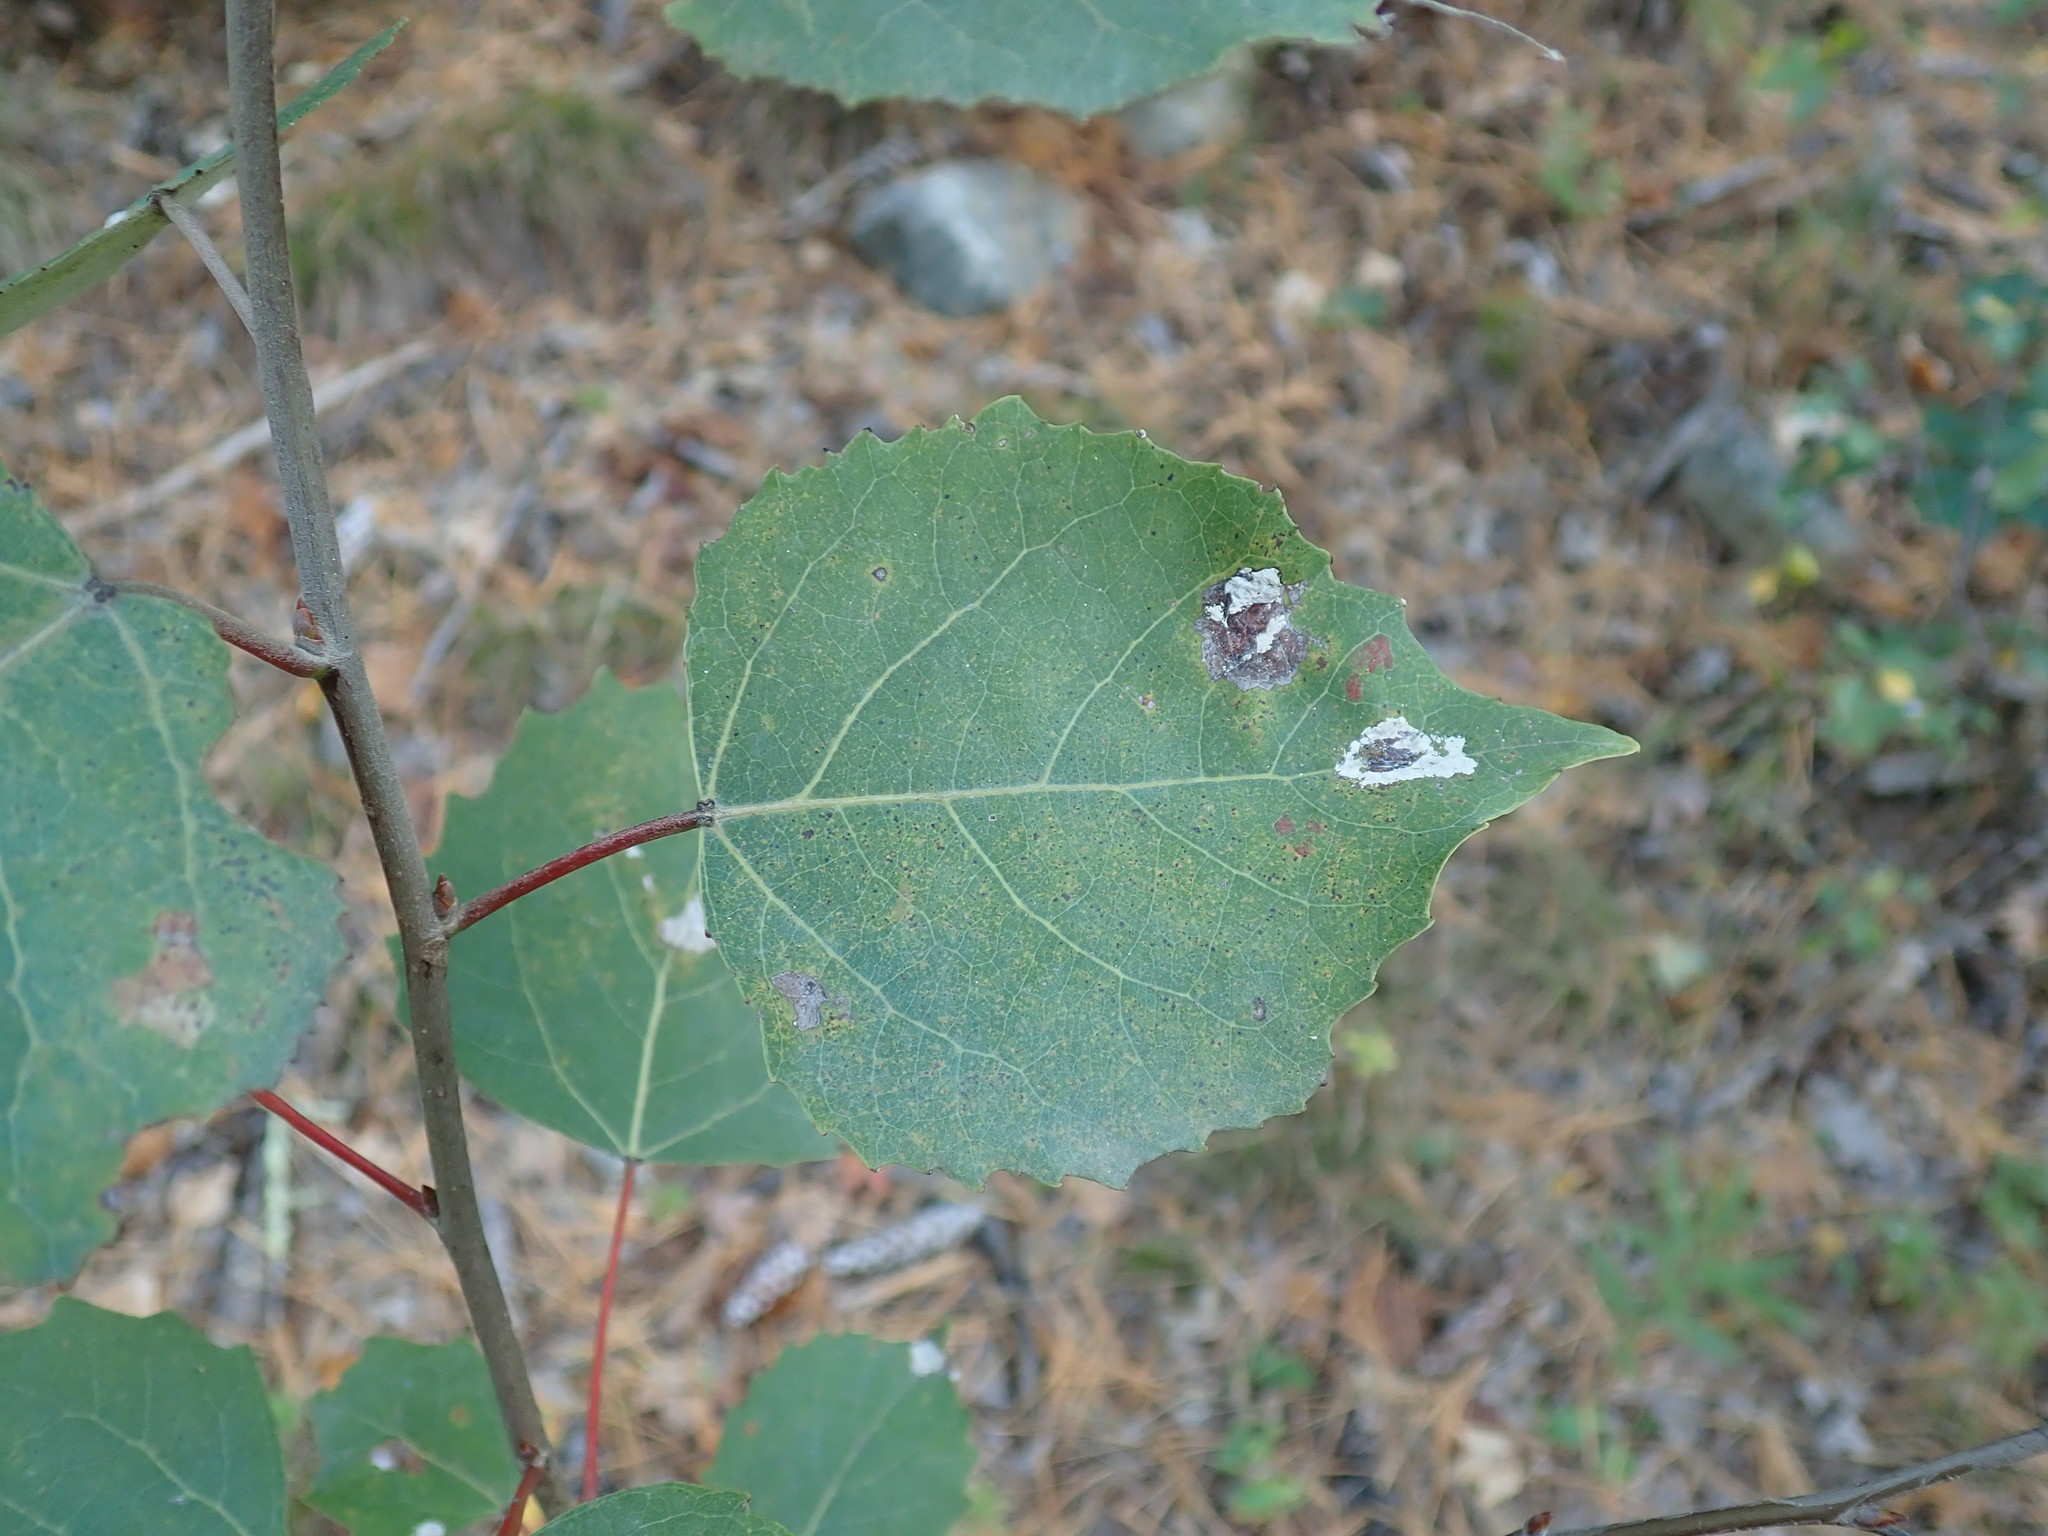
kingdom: Plantae
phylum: Tracheophyta
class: Magnoliopsida
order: Malpighiales
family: Salicaceae
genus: Populus
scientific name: Populus grandidentata
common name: Bigtooth aspen
